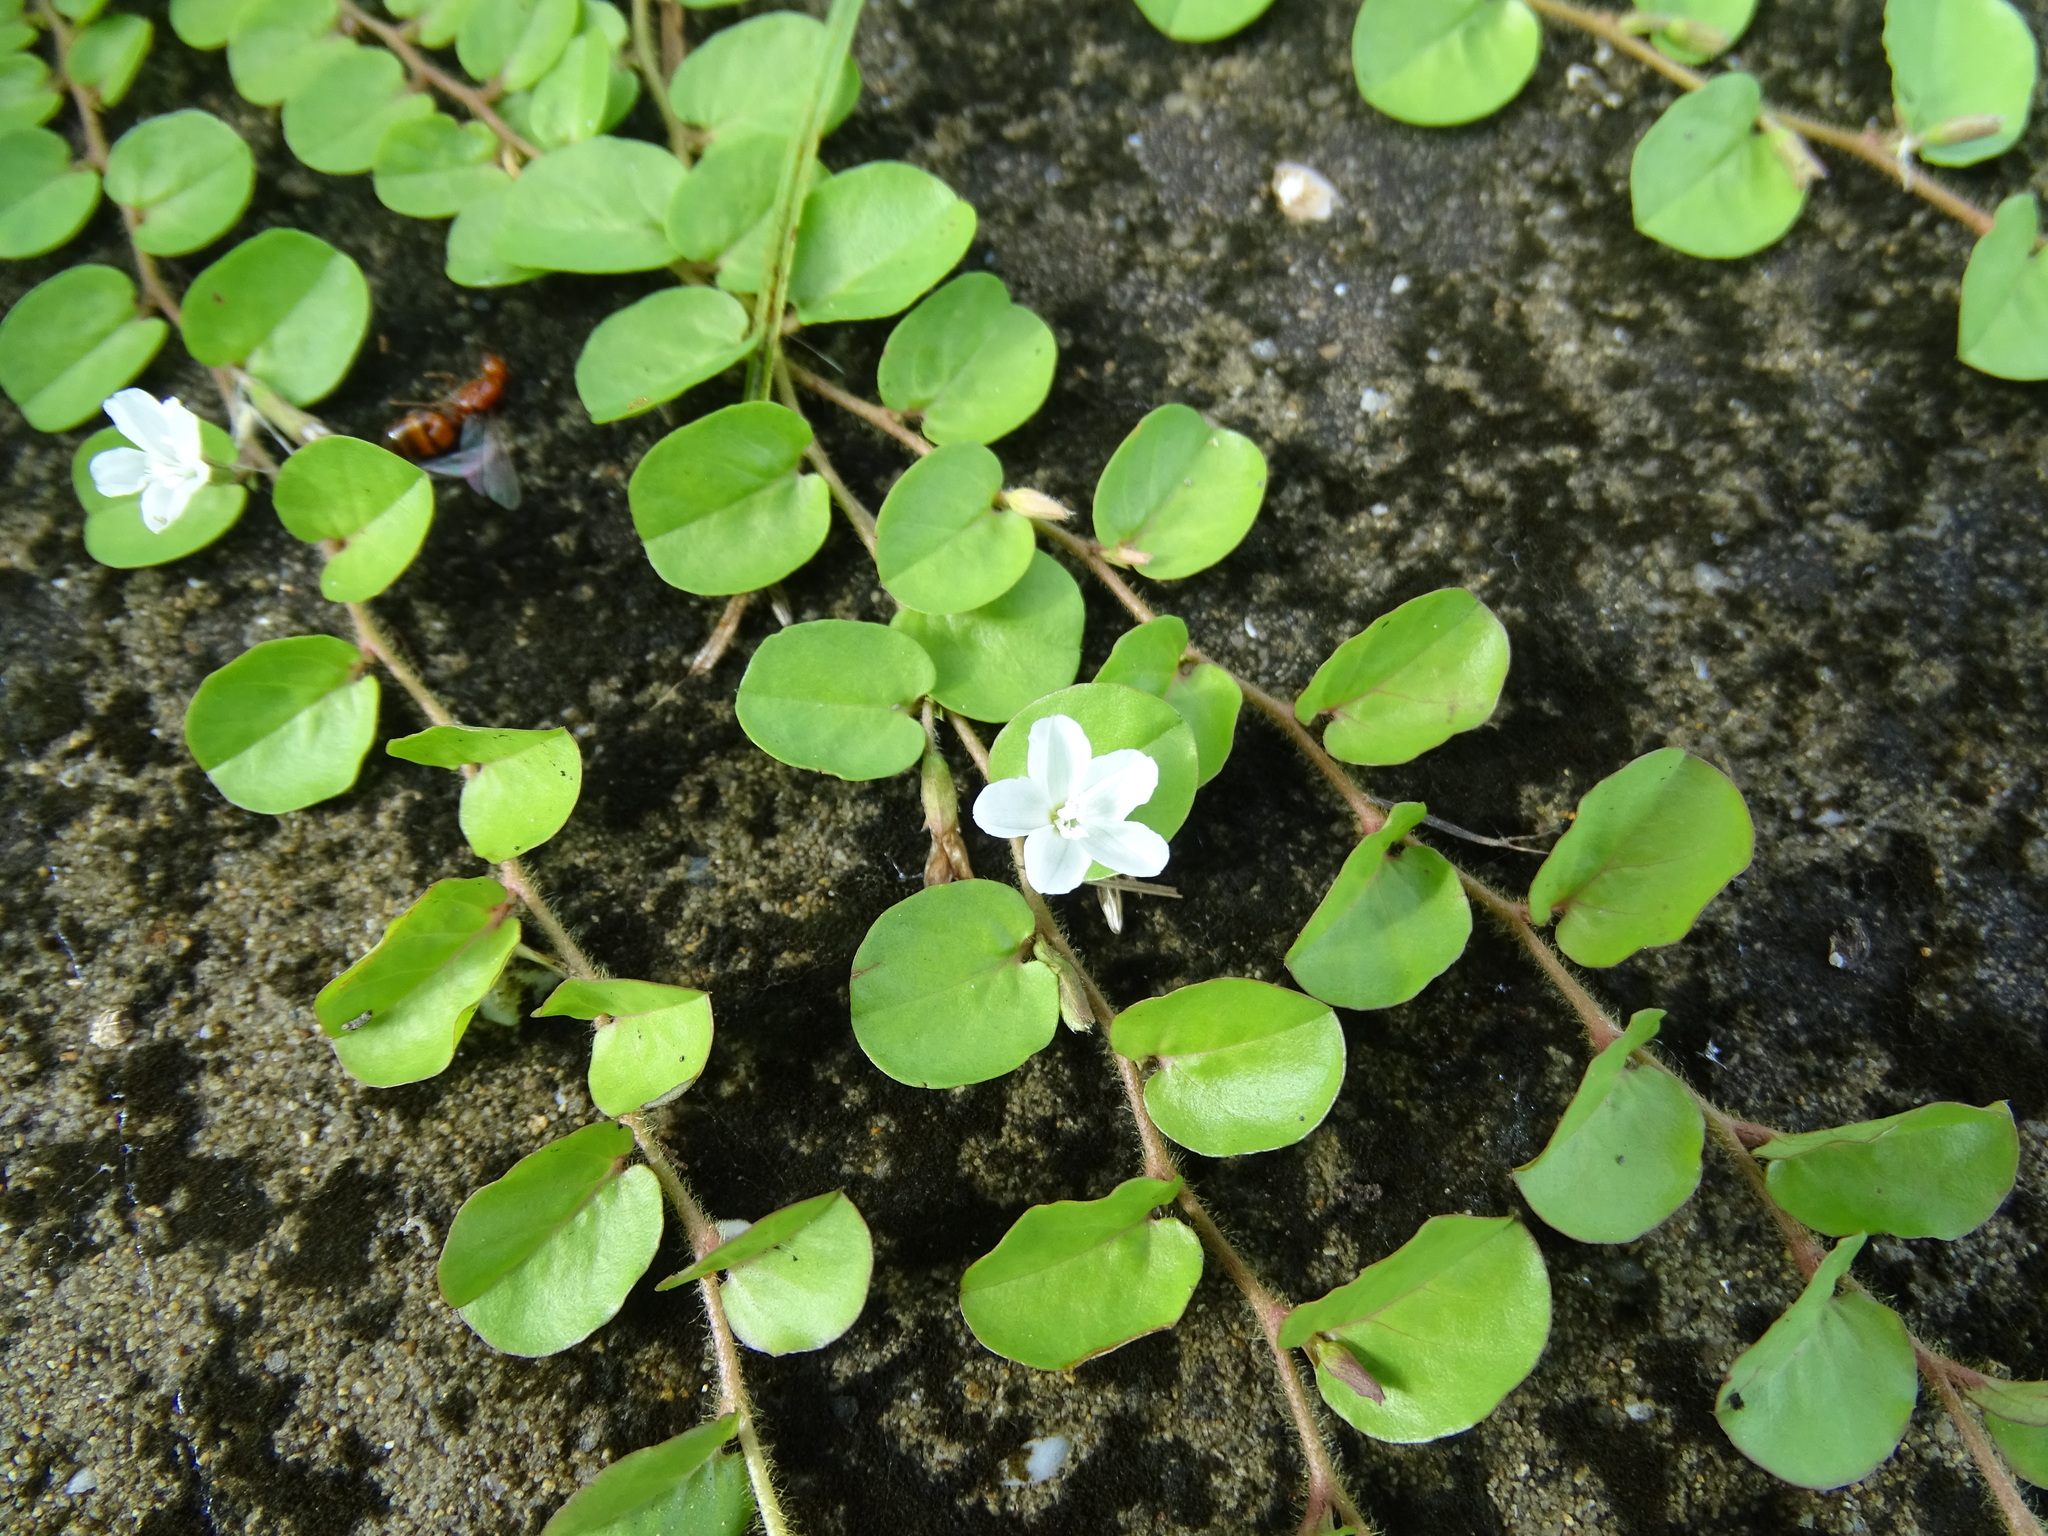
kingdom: Plantae
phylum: Tracheophyta
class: Magnoliopsida
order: Solanales
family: Convolvulaceae
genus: Evolvulus
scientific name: Evolvulus nummularius
